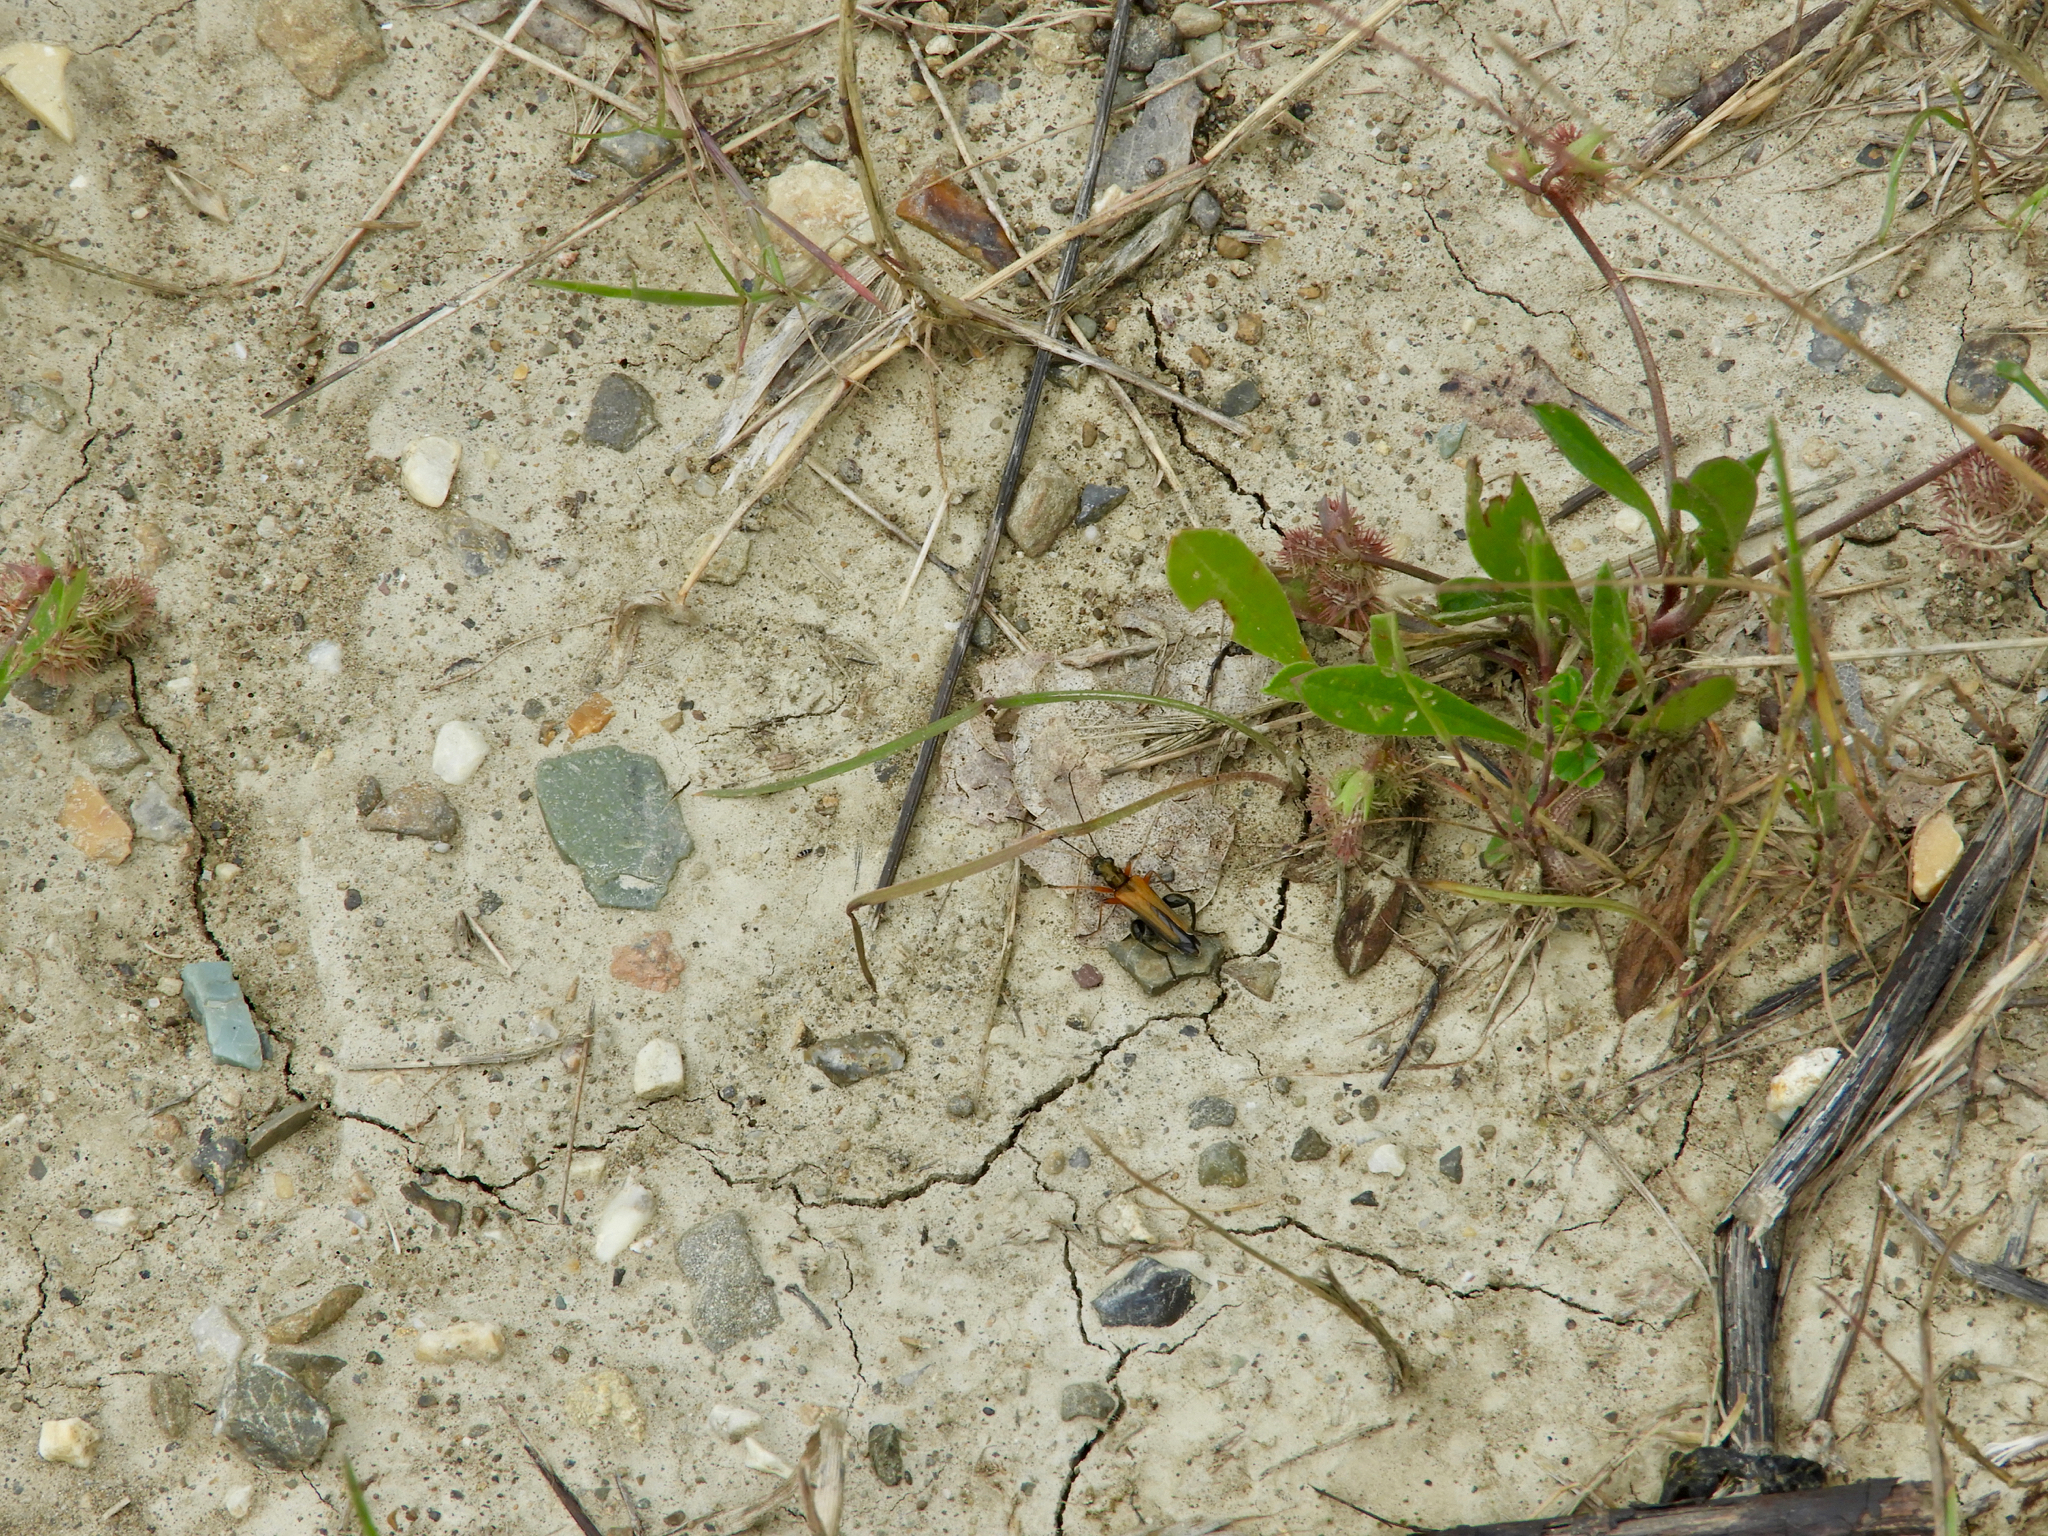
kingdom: Animalia
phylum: Arthropoda
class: Insecta
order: Coleoptera
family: Oedemeridae
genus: Oedemera
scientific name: Oedemera podagrariae
